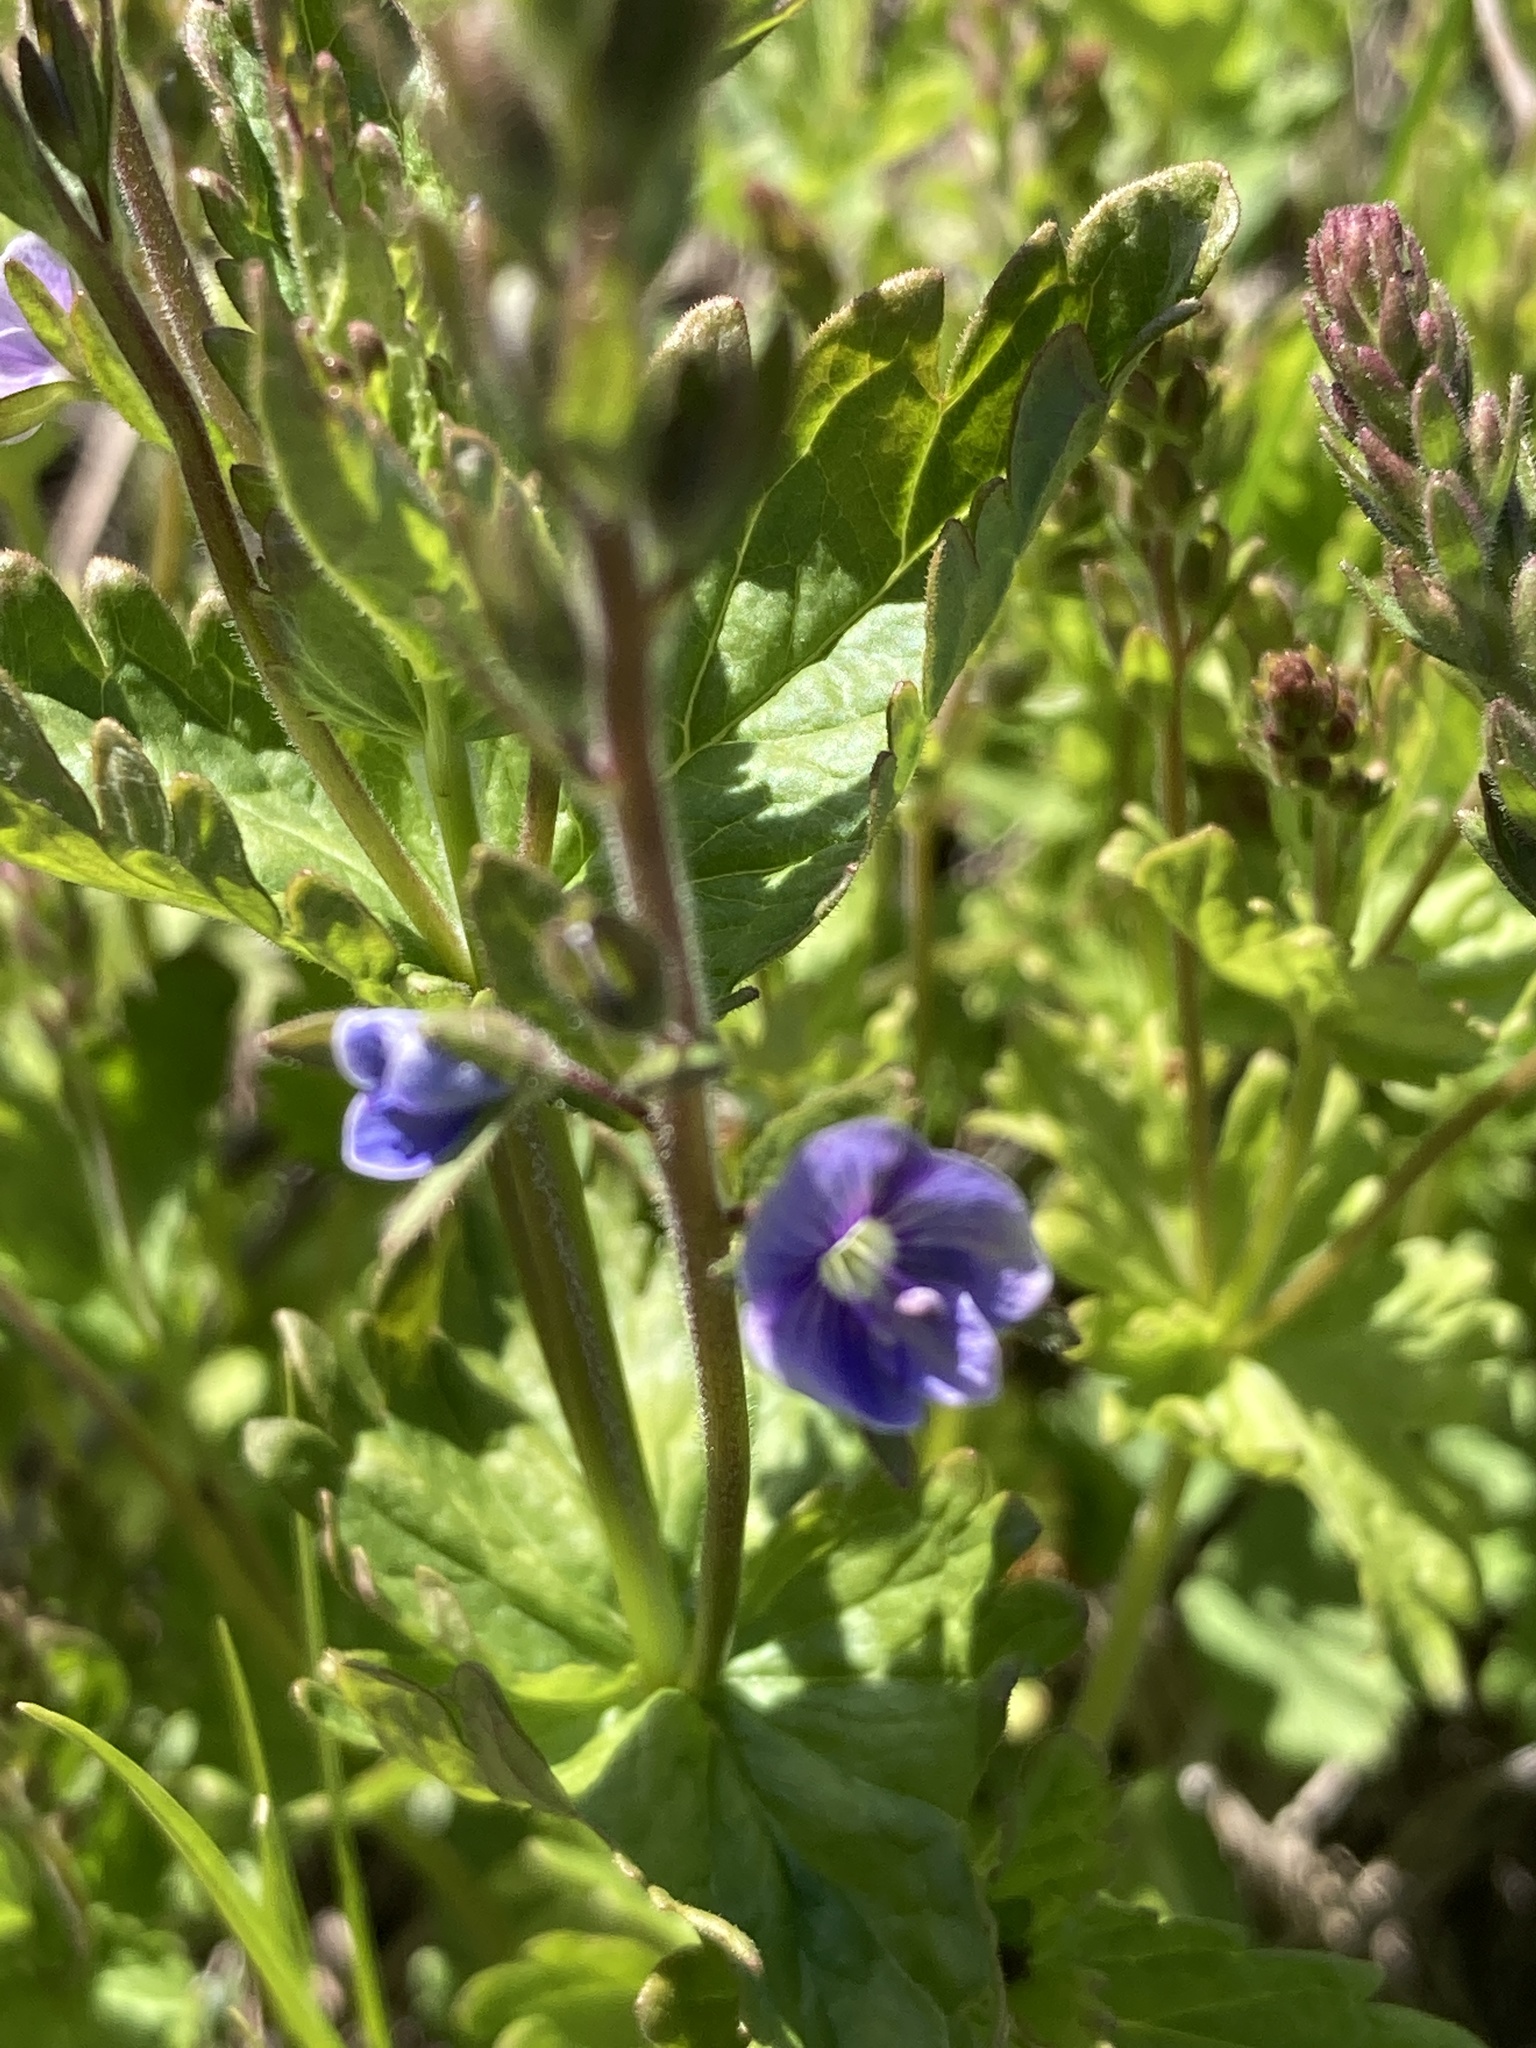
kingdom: Plantae
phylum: Tracheophyta
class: Magnoliopsida
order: Lamiales
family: Plantaginaceae
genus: Veronica
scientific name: Veronica chamaedrys
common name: Germander speedwell
